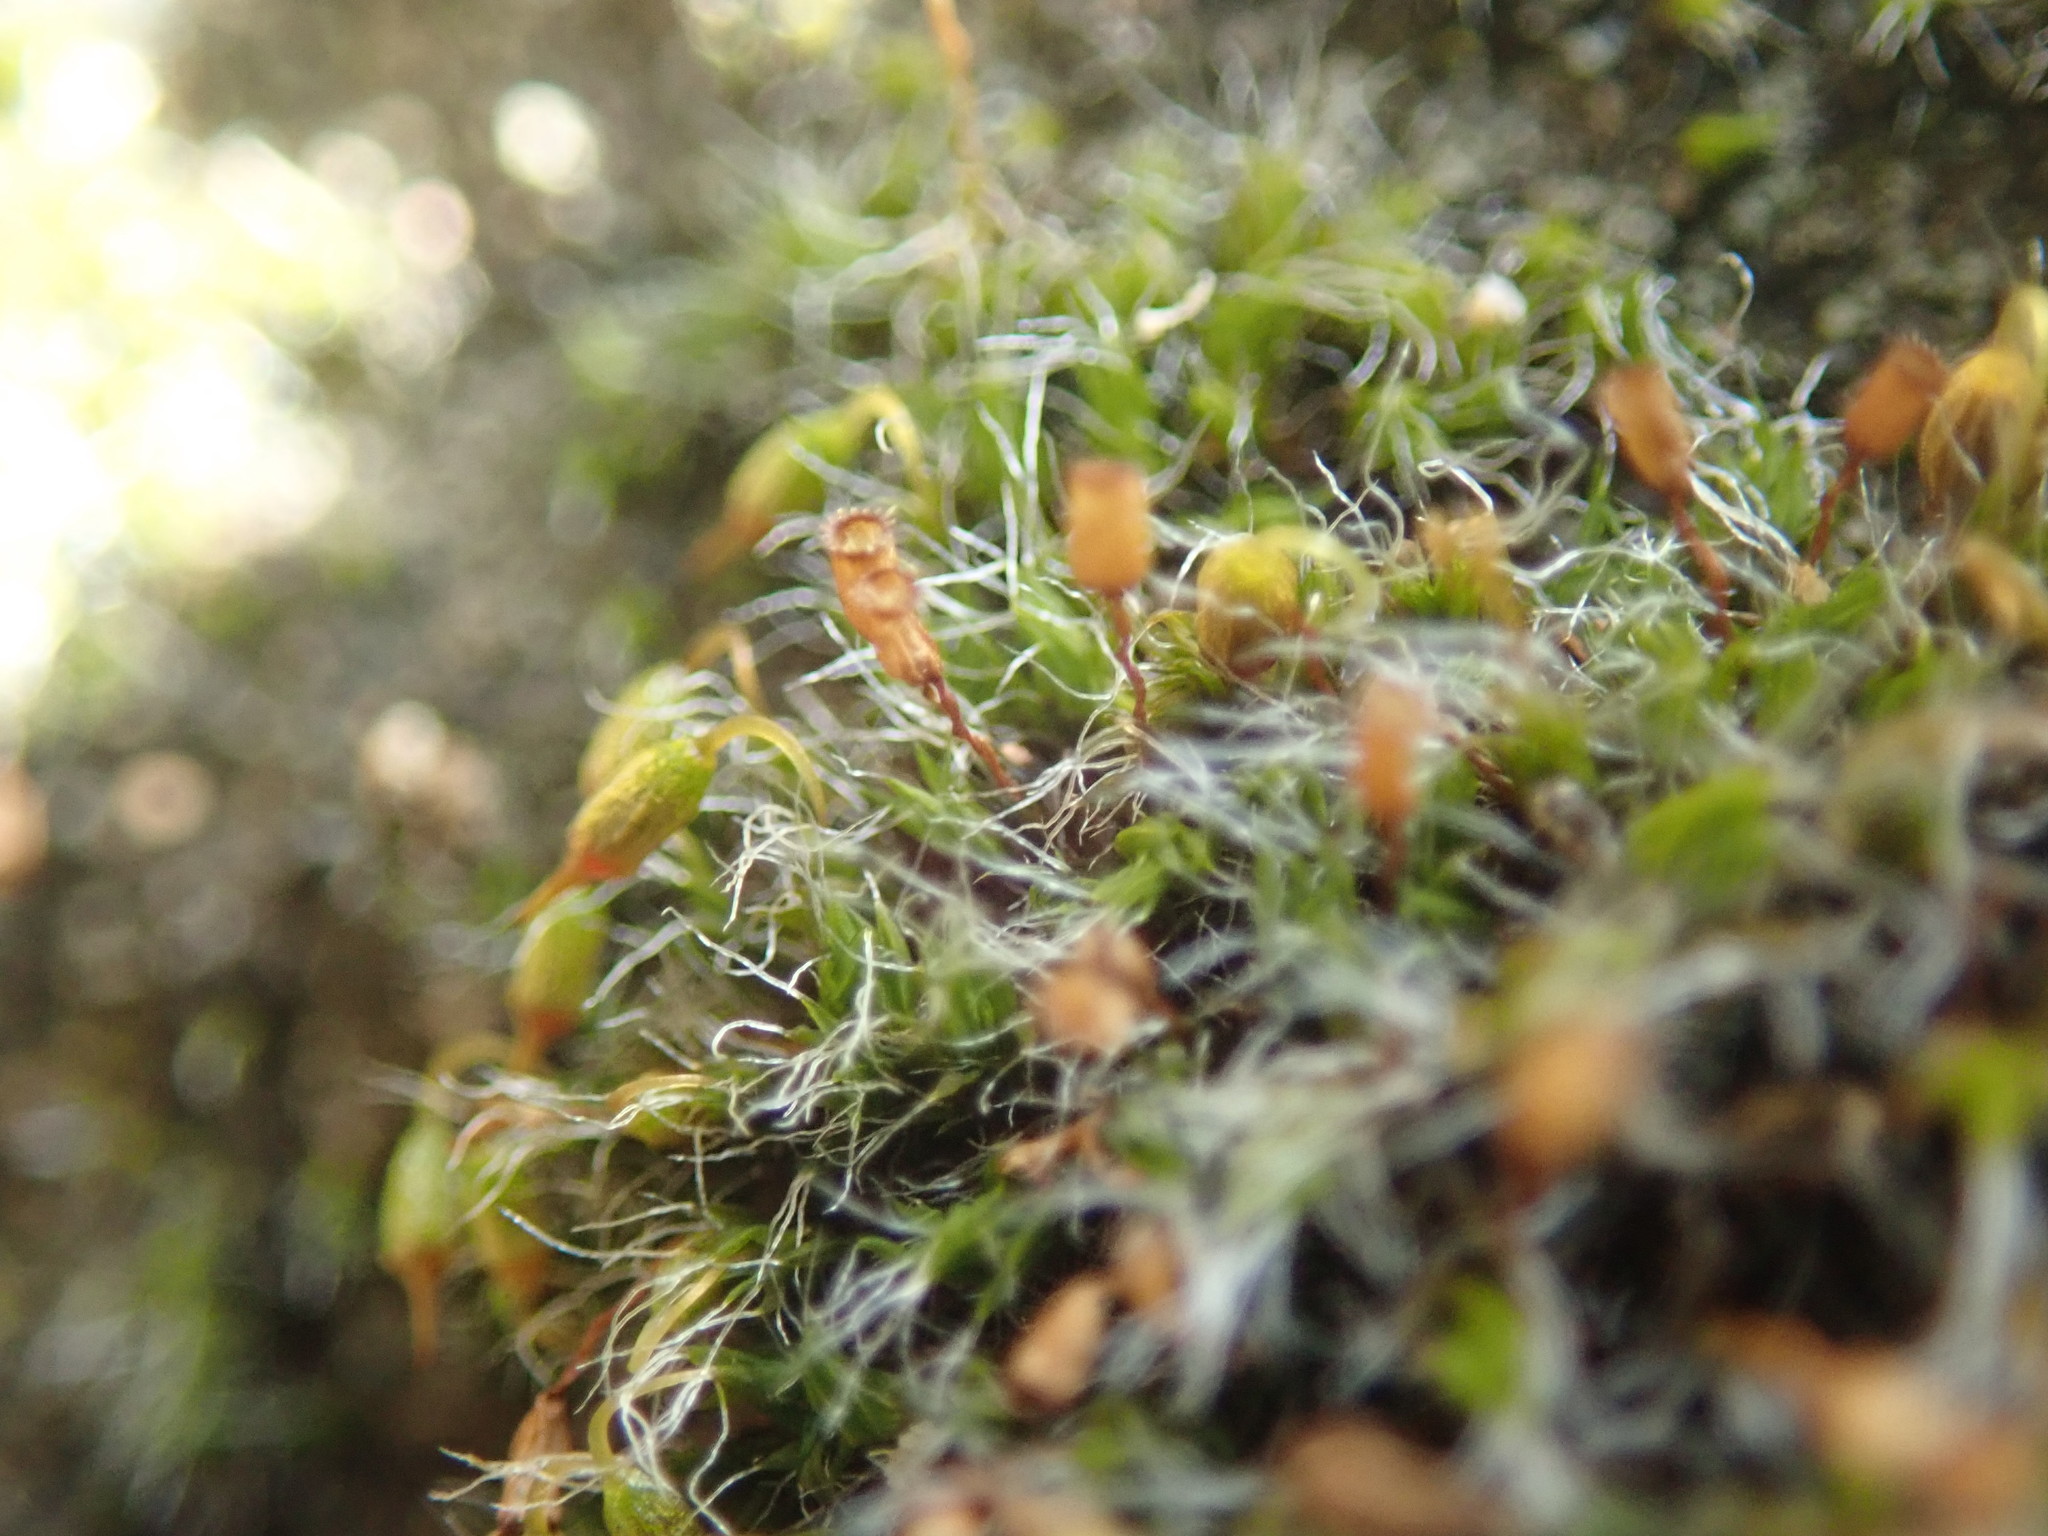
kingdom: Plantae
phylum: Bryophyta
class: Bryopsida
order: Grimmiales
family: Grimmiaceae
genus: Grimmia
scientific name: Grimmia pulvinata
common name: Grey-cushioned grimmia
